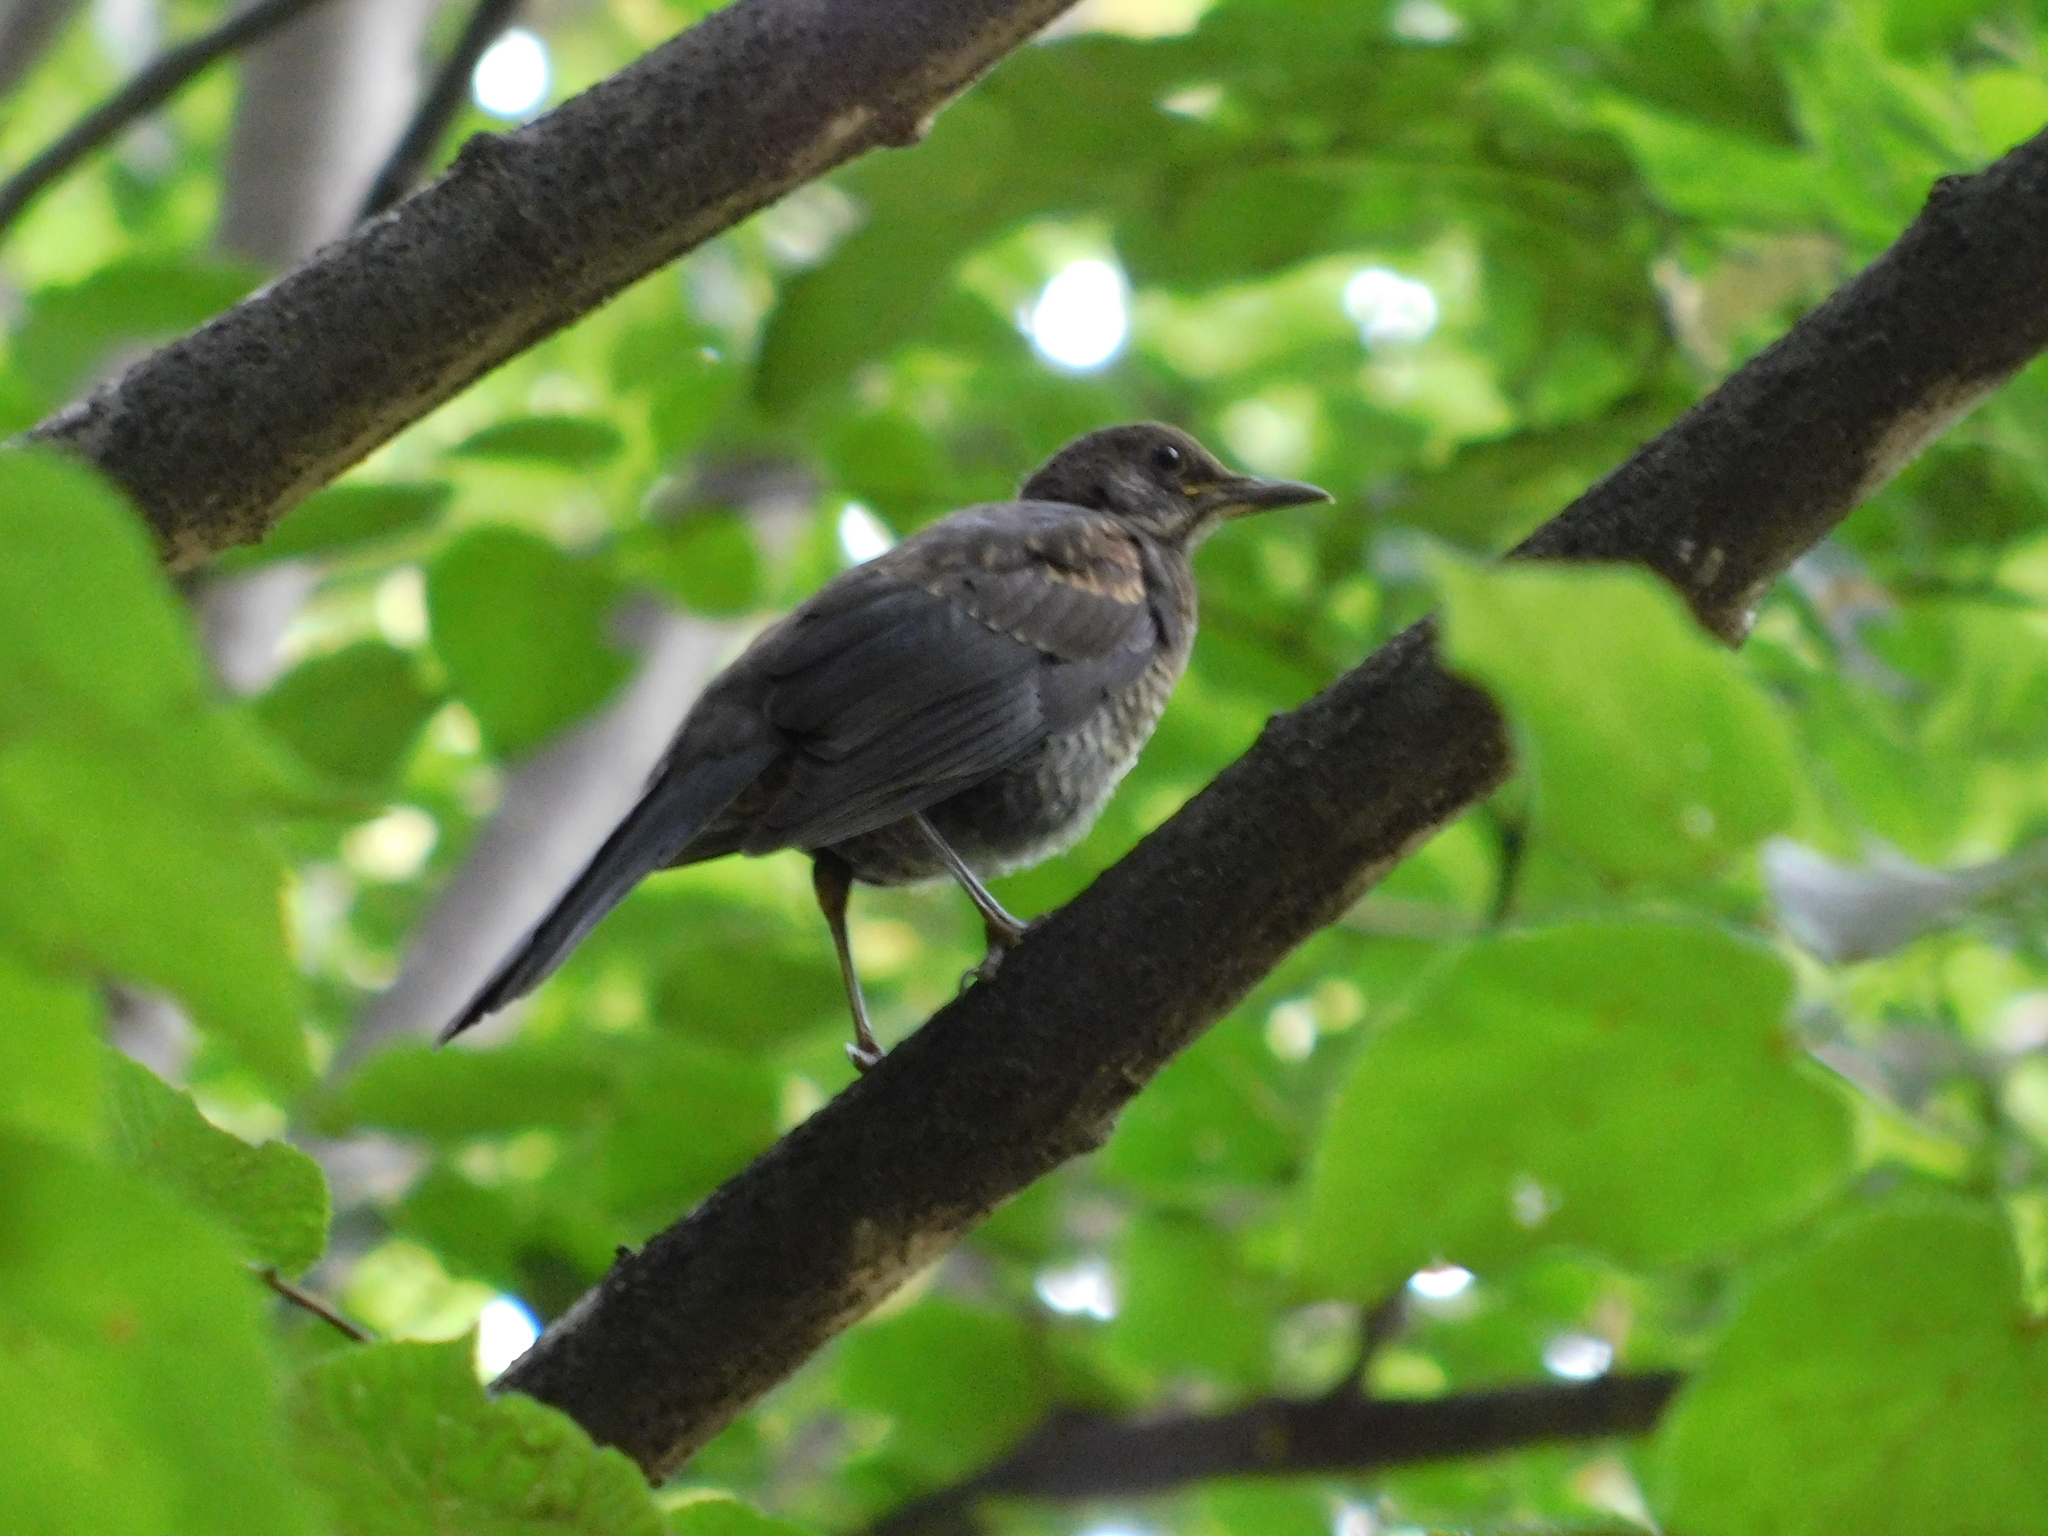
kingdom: Animalia
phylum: Chordata
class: Aves
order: Passeriformes
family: Turdidae
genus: Turdus
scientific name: Turdus merula
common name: Common blackbird
